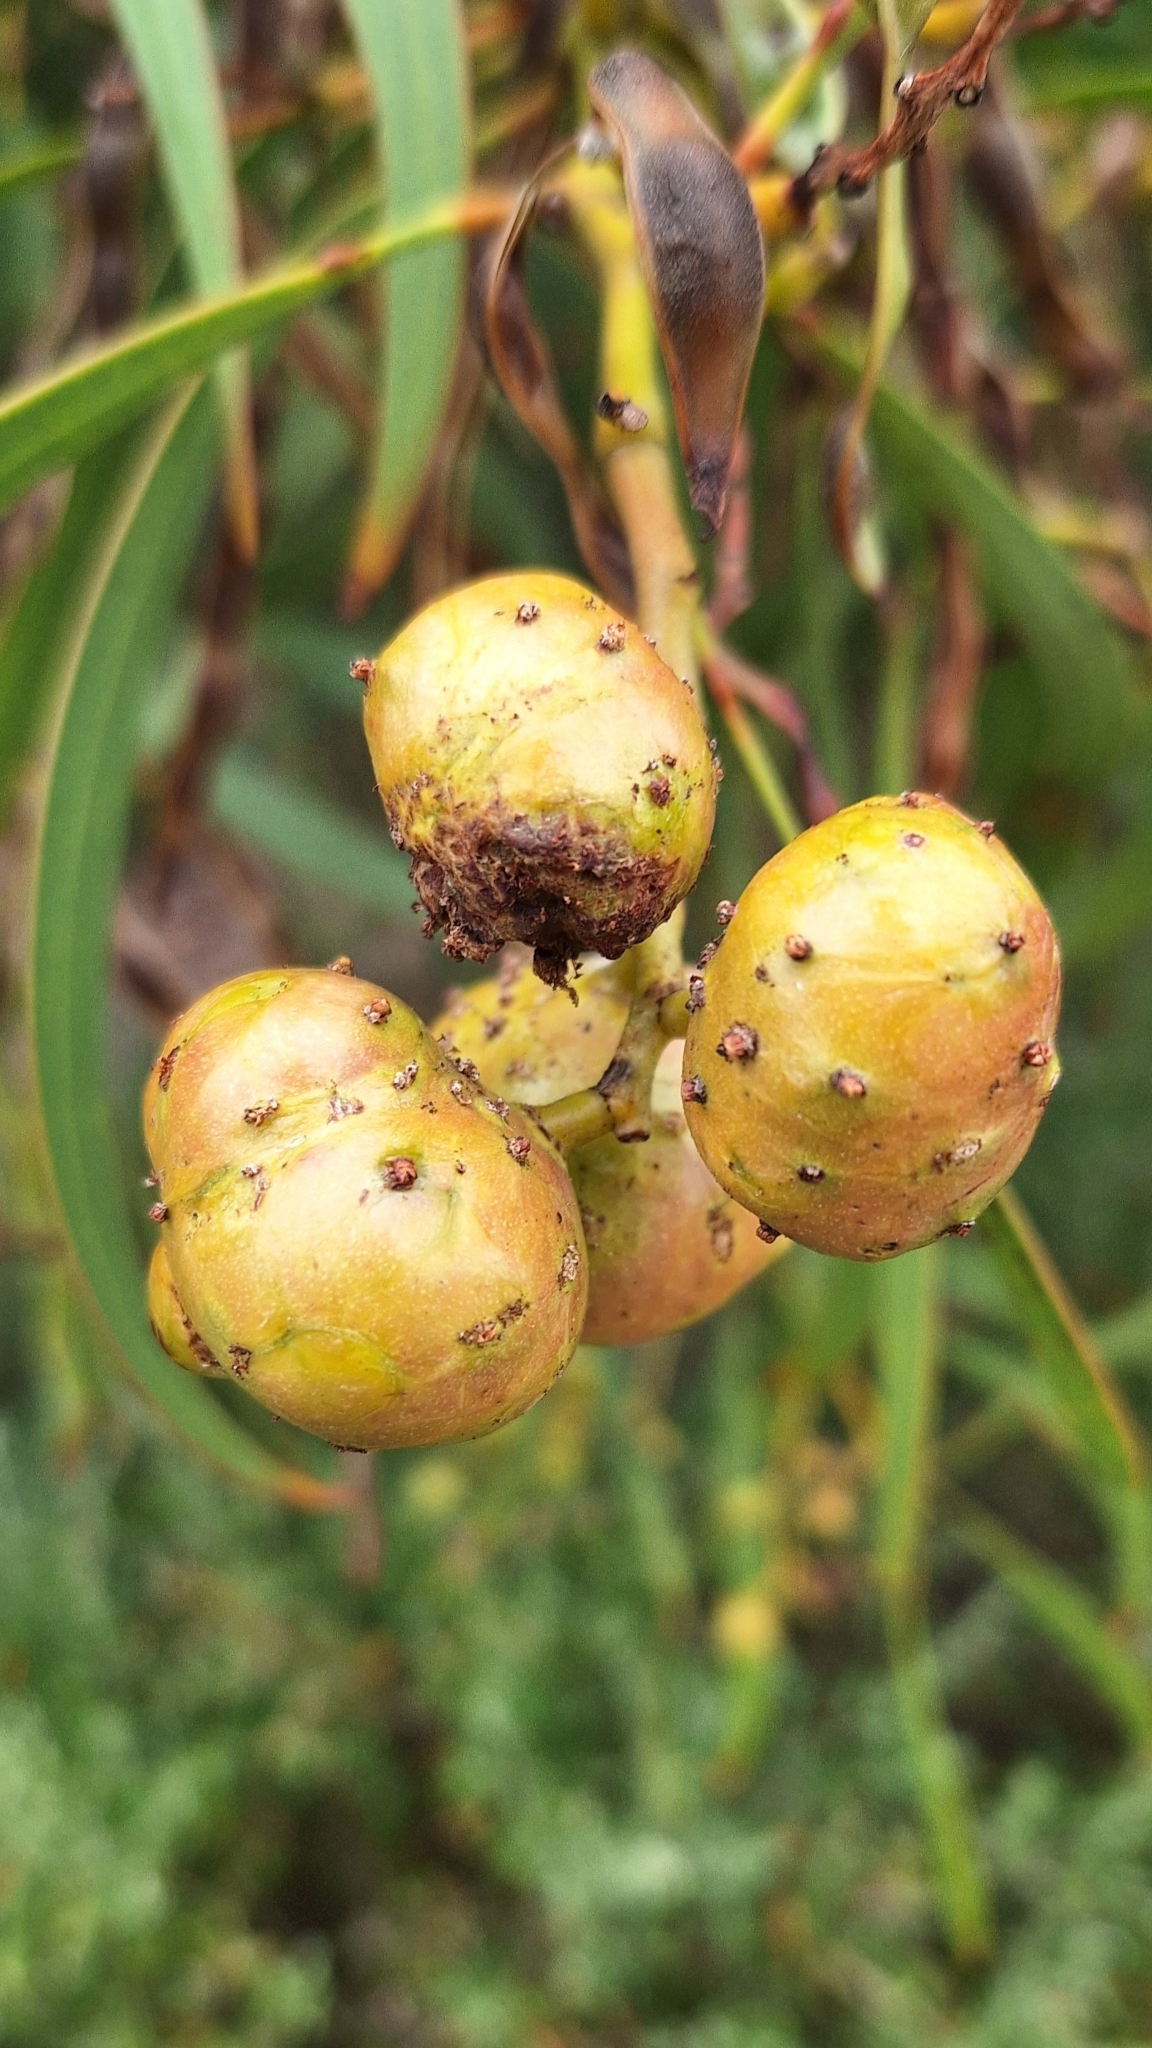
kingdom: Animalia
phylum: Arthropoda
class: Insecta
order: Hymenoptera
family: Pteromalidae
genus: Trichilogaster
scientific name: Trichilogaster signiventris
